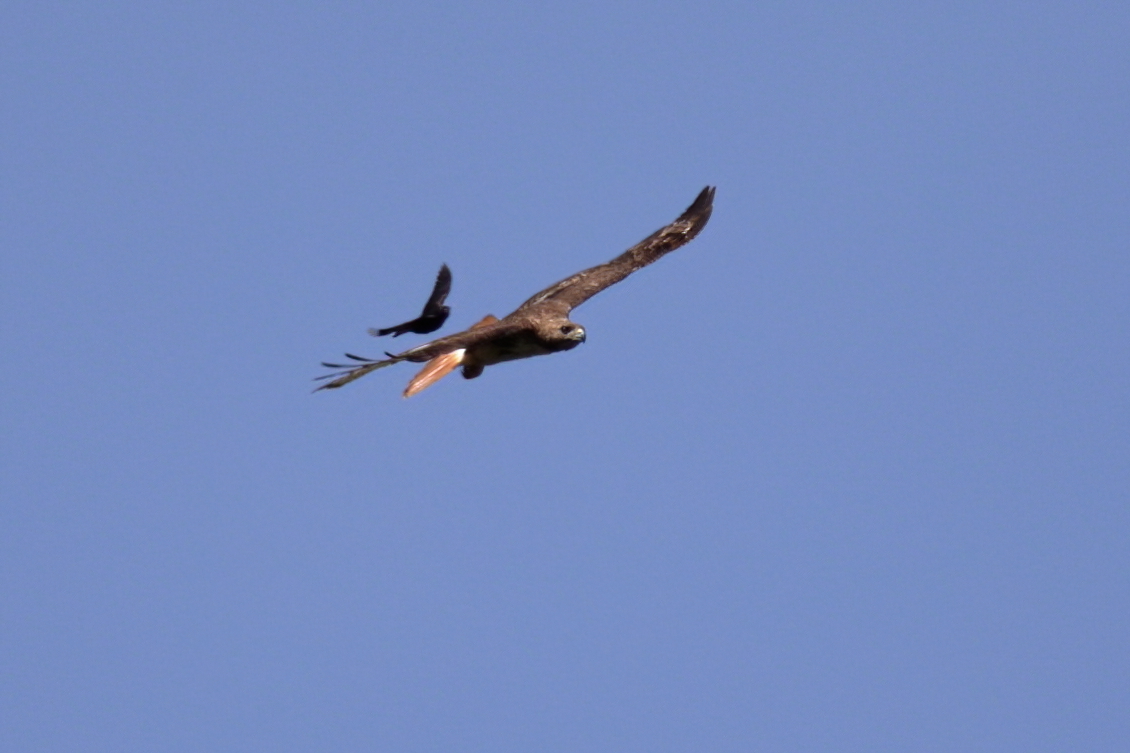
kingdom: Animalia
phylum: Chordata
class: Aves
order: Accipitriformes
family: Accipitridae
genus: Buteo
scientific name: Buteo jamaicensis
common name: Red-tailed hawk
